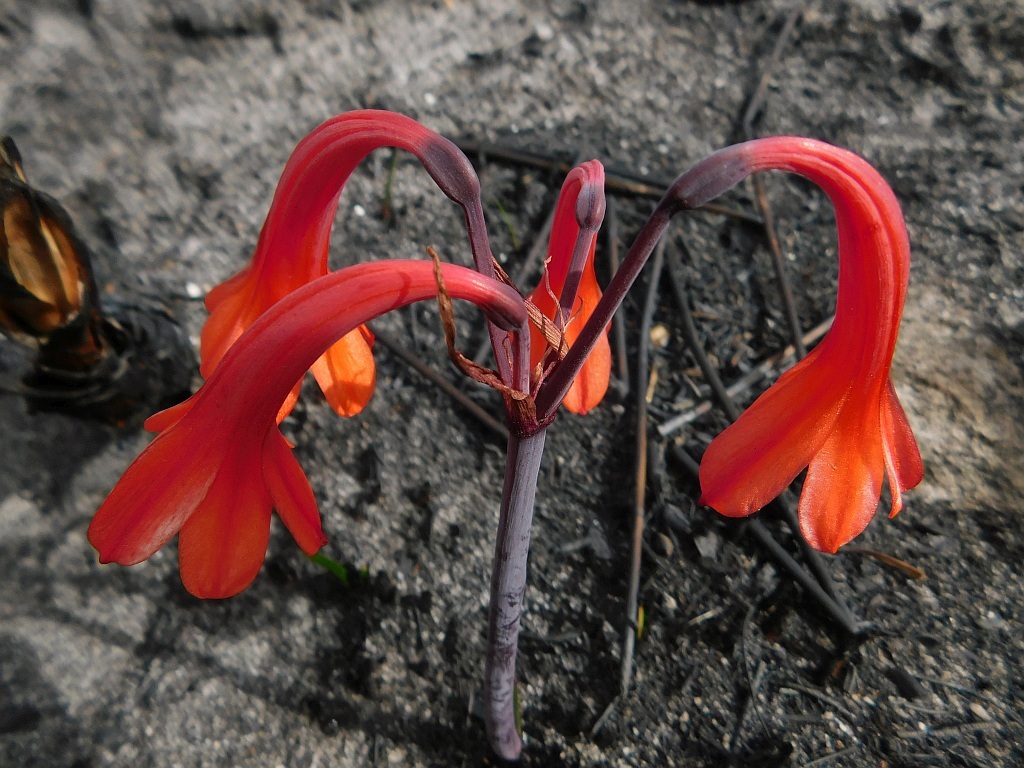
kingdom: Plantae
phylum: Tracheophyta
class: Liliopsida
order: Asparagales
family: Amaryllidaceae
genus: Cyrtanthus
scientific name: Cyrtanthus ventricosus
